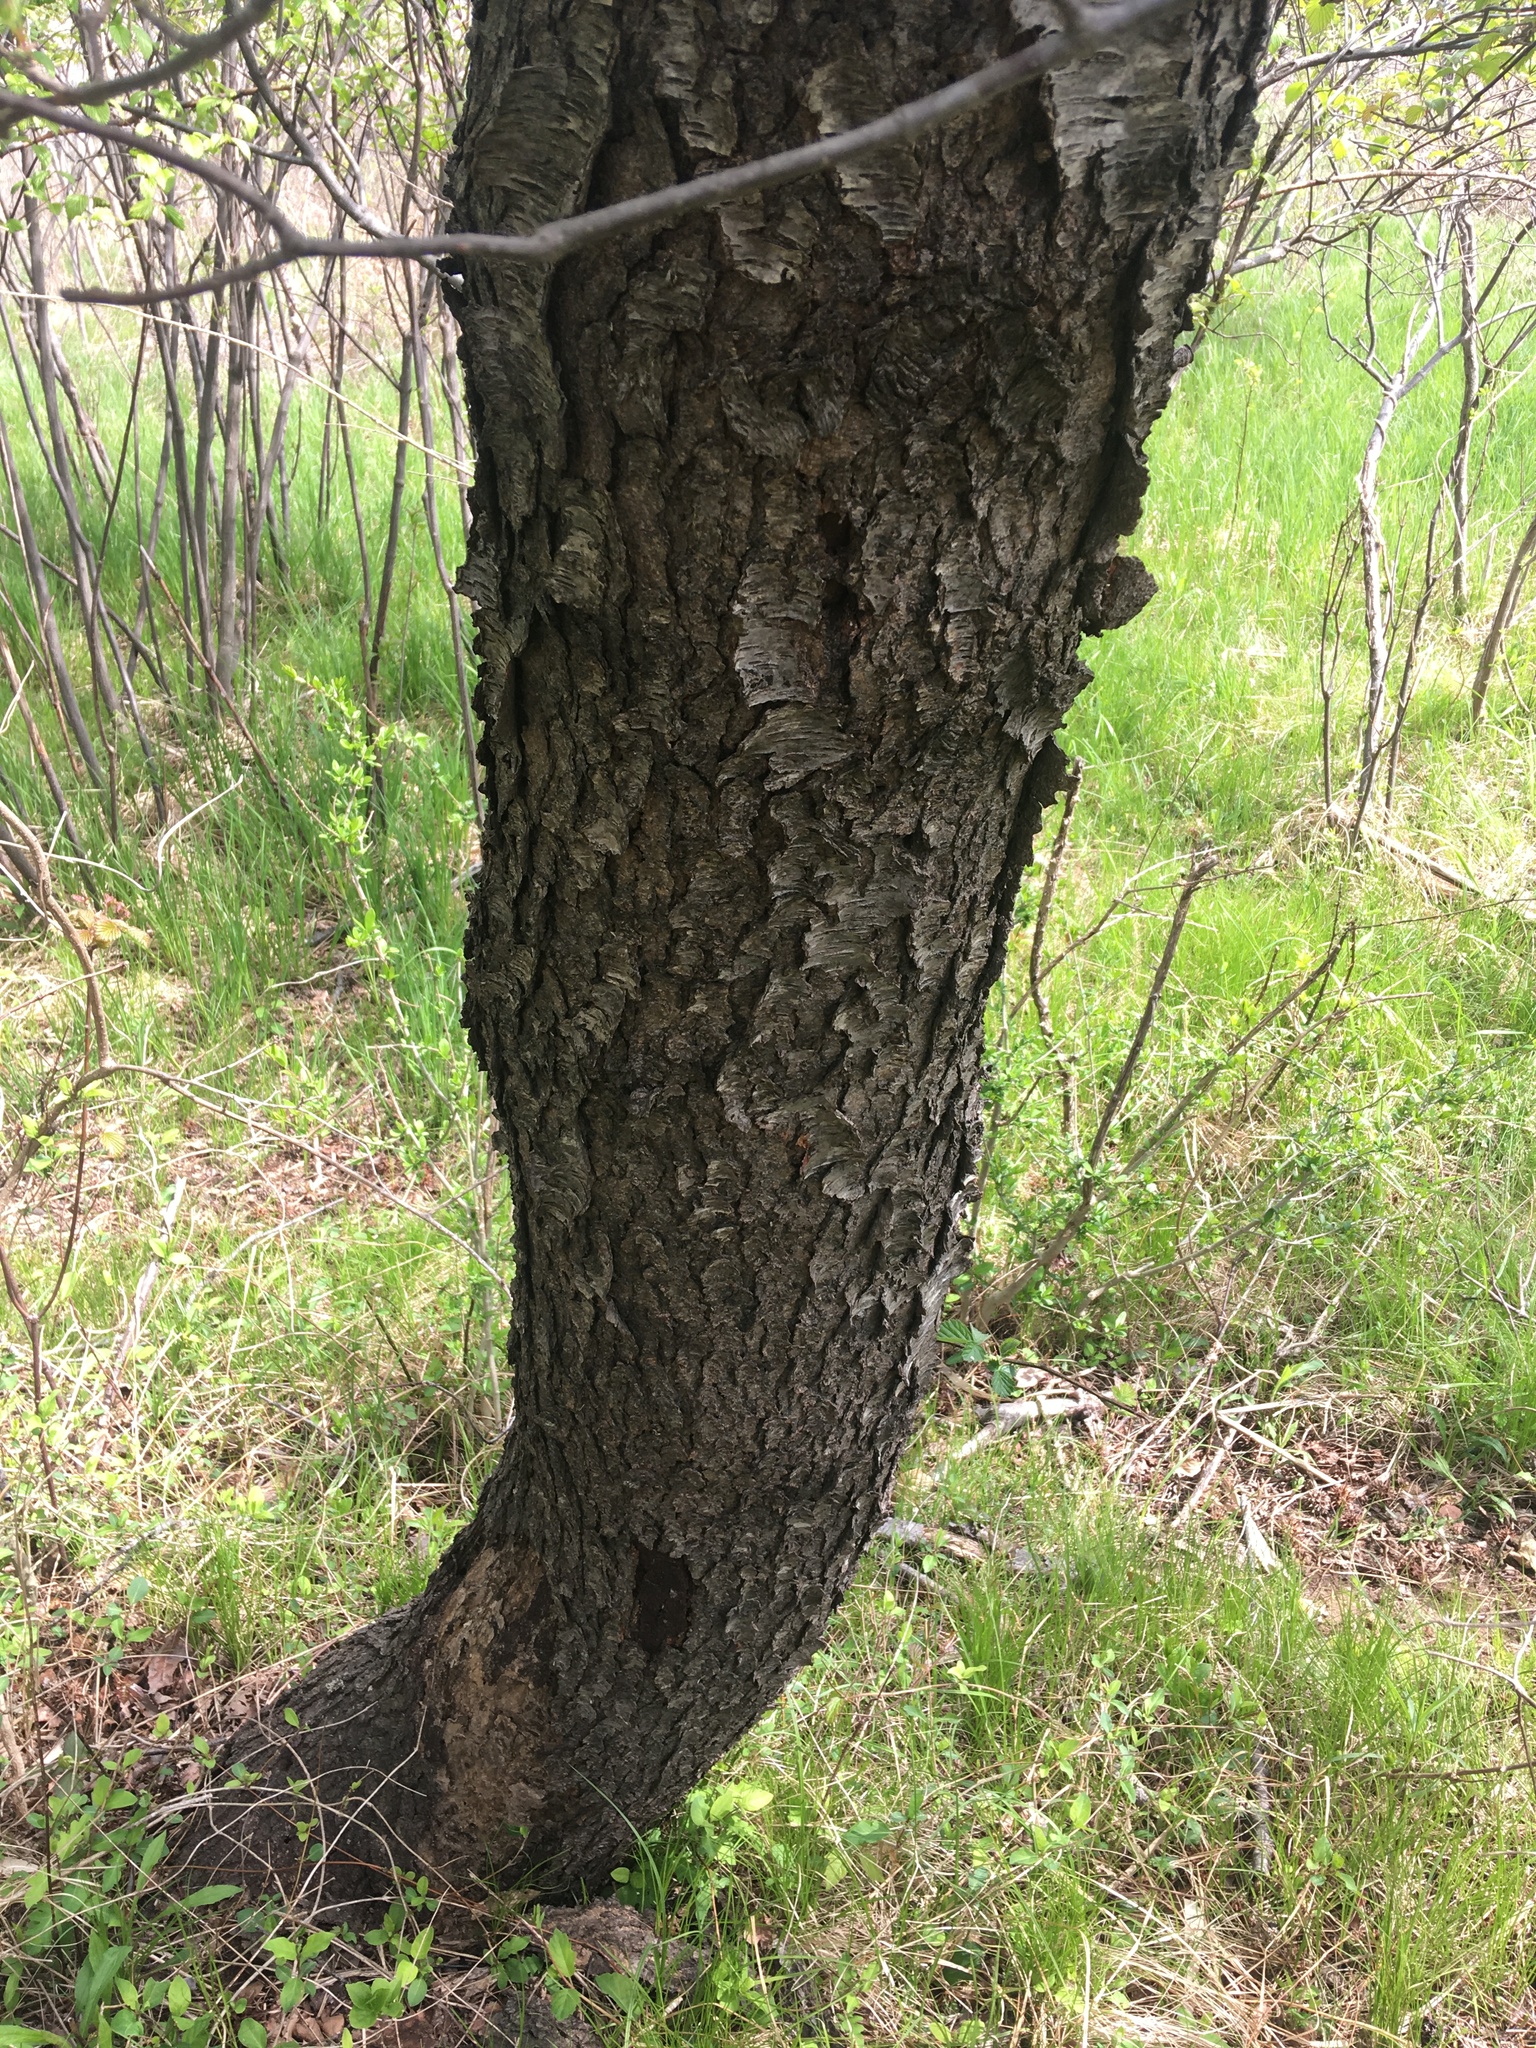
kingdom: Plantae
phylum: Tracheophyta
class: Magnoliopsida
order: Rosales
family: Rosaceae
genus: Prunus
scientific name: Prunus serotina
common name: Black cherry
